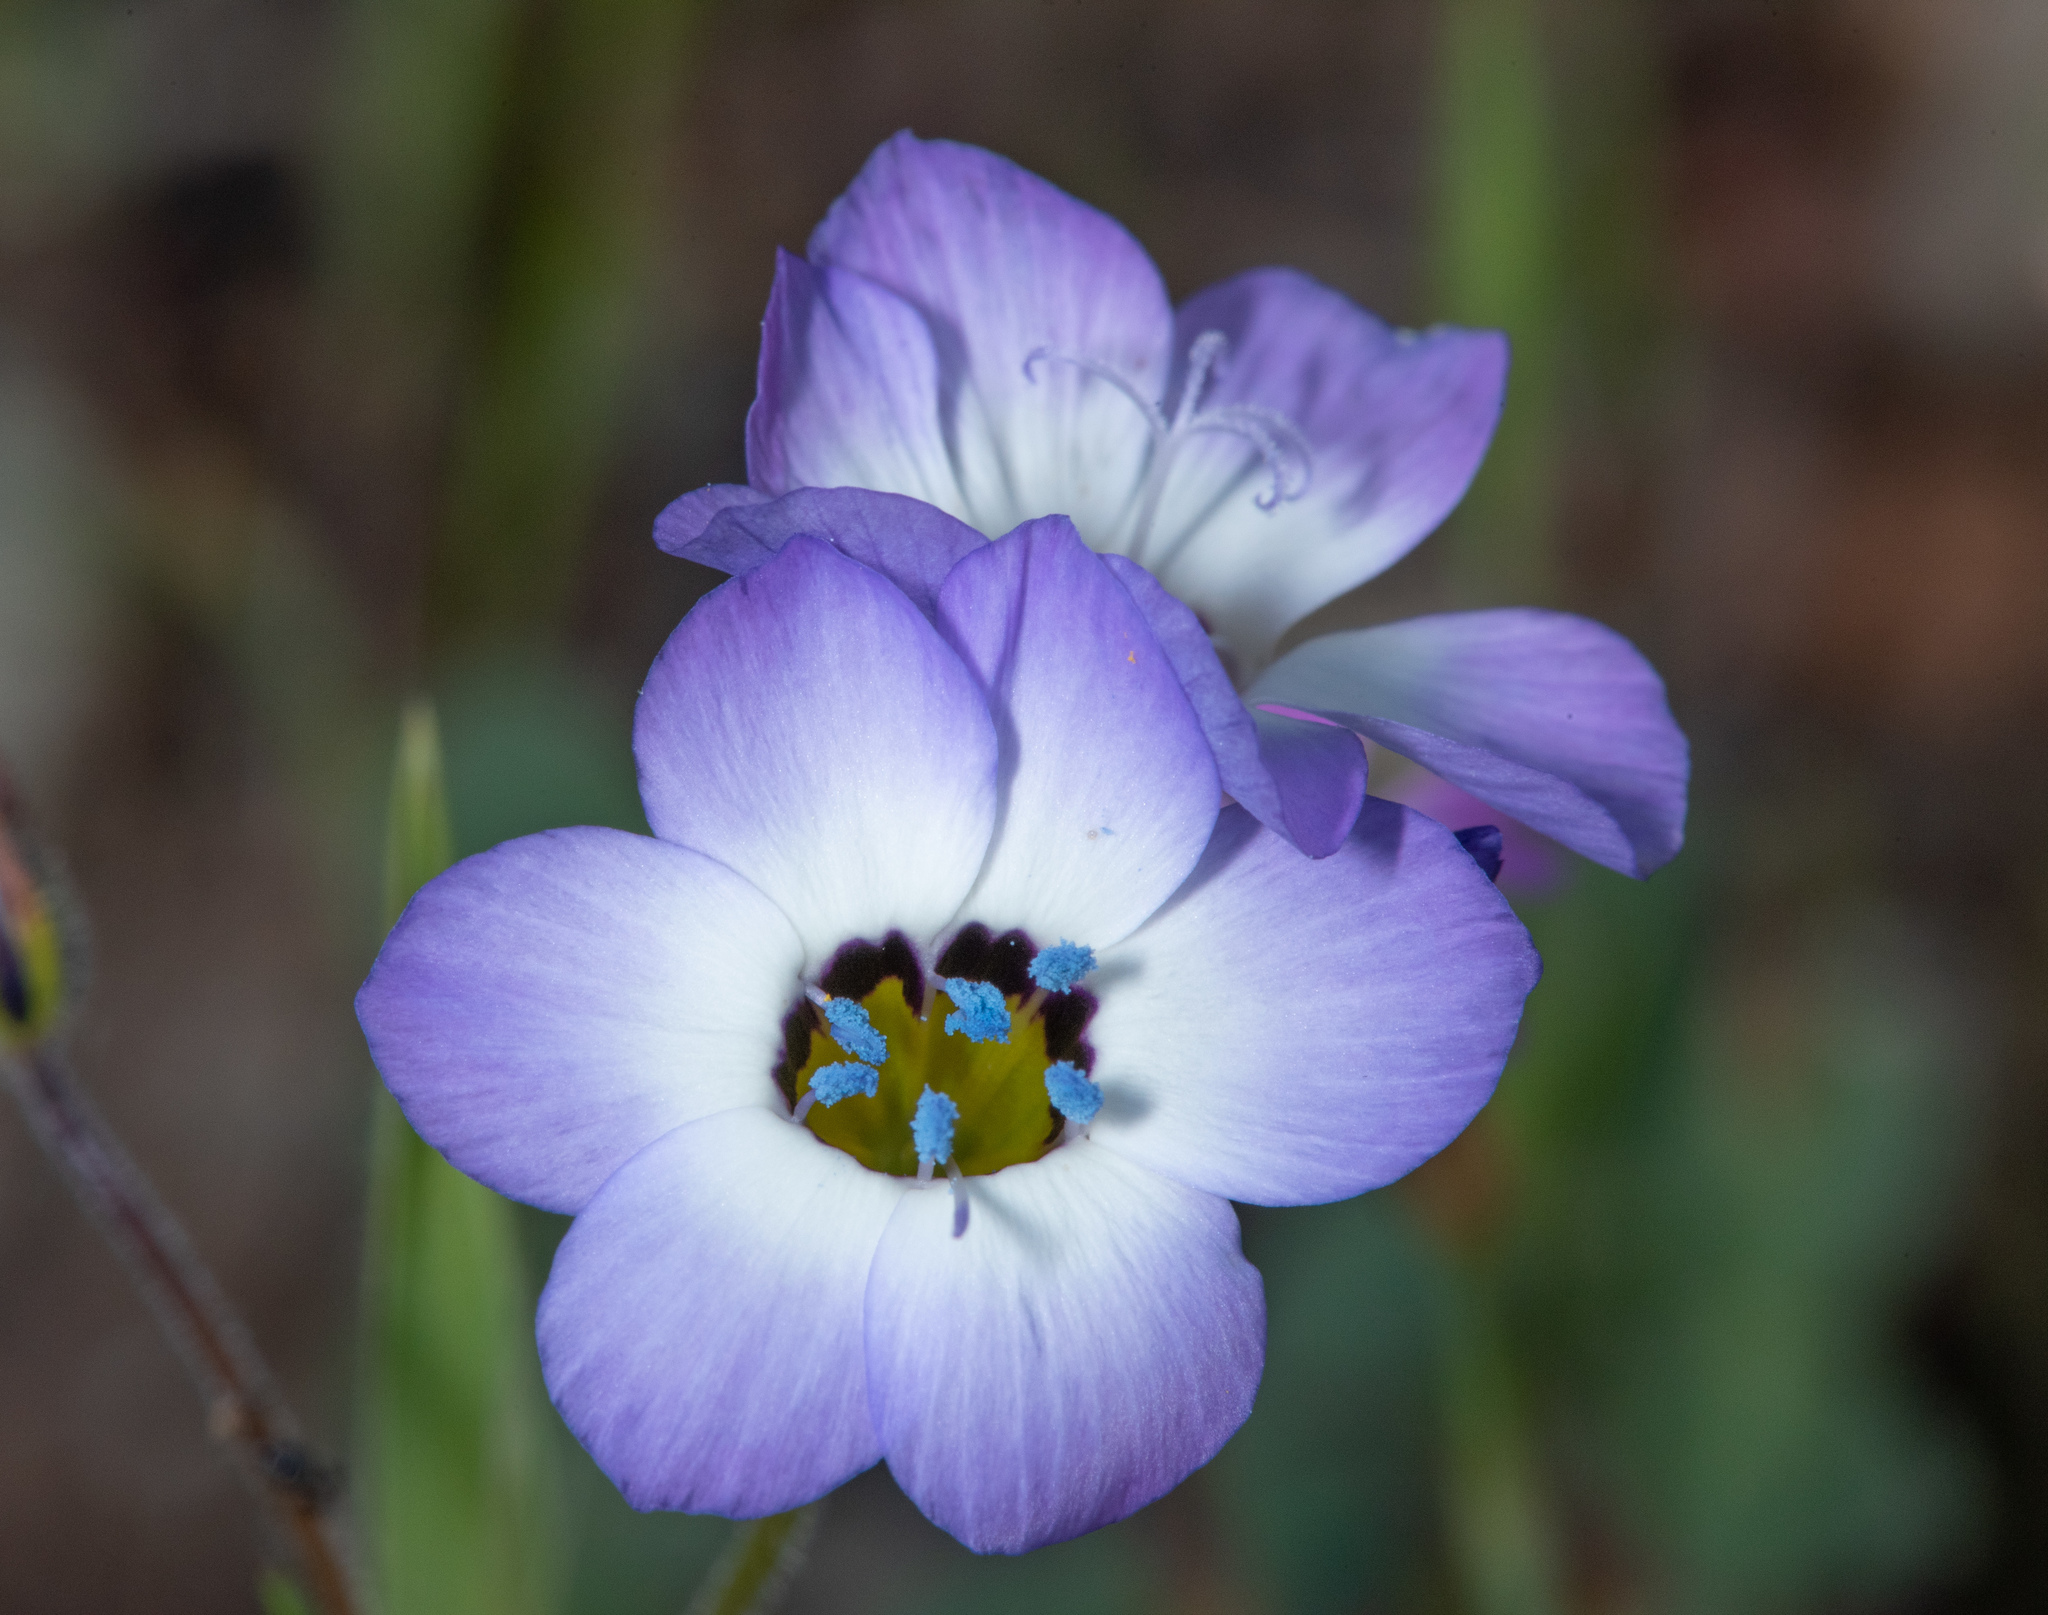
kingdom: Plantae
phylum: Tracheophyta
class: Magnoliopsida
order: Ericales
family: Polemoniaceae
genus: Gilia
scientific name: Gilia tricolor
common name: Bird's-eyes
